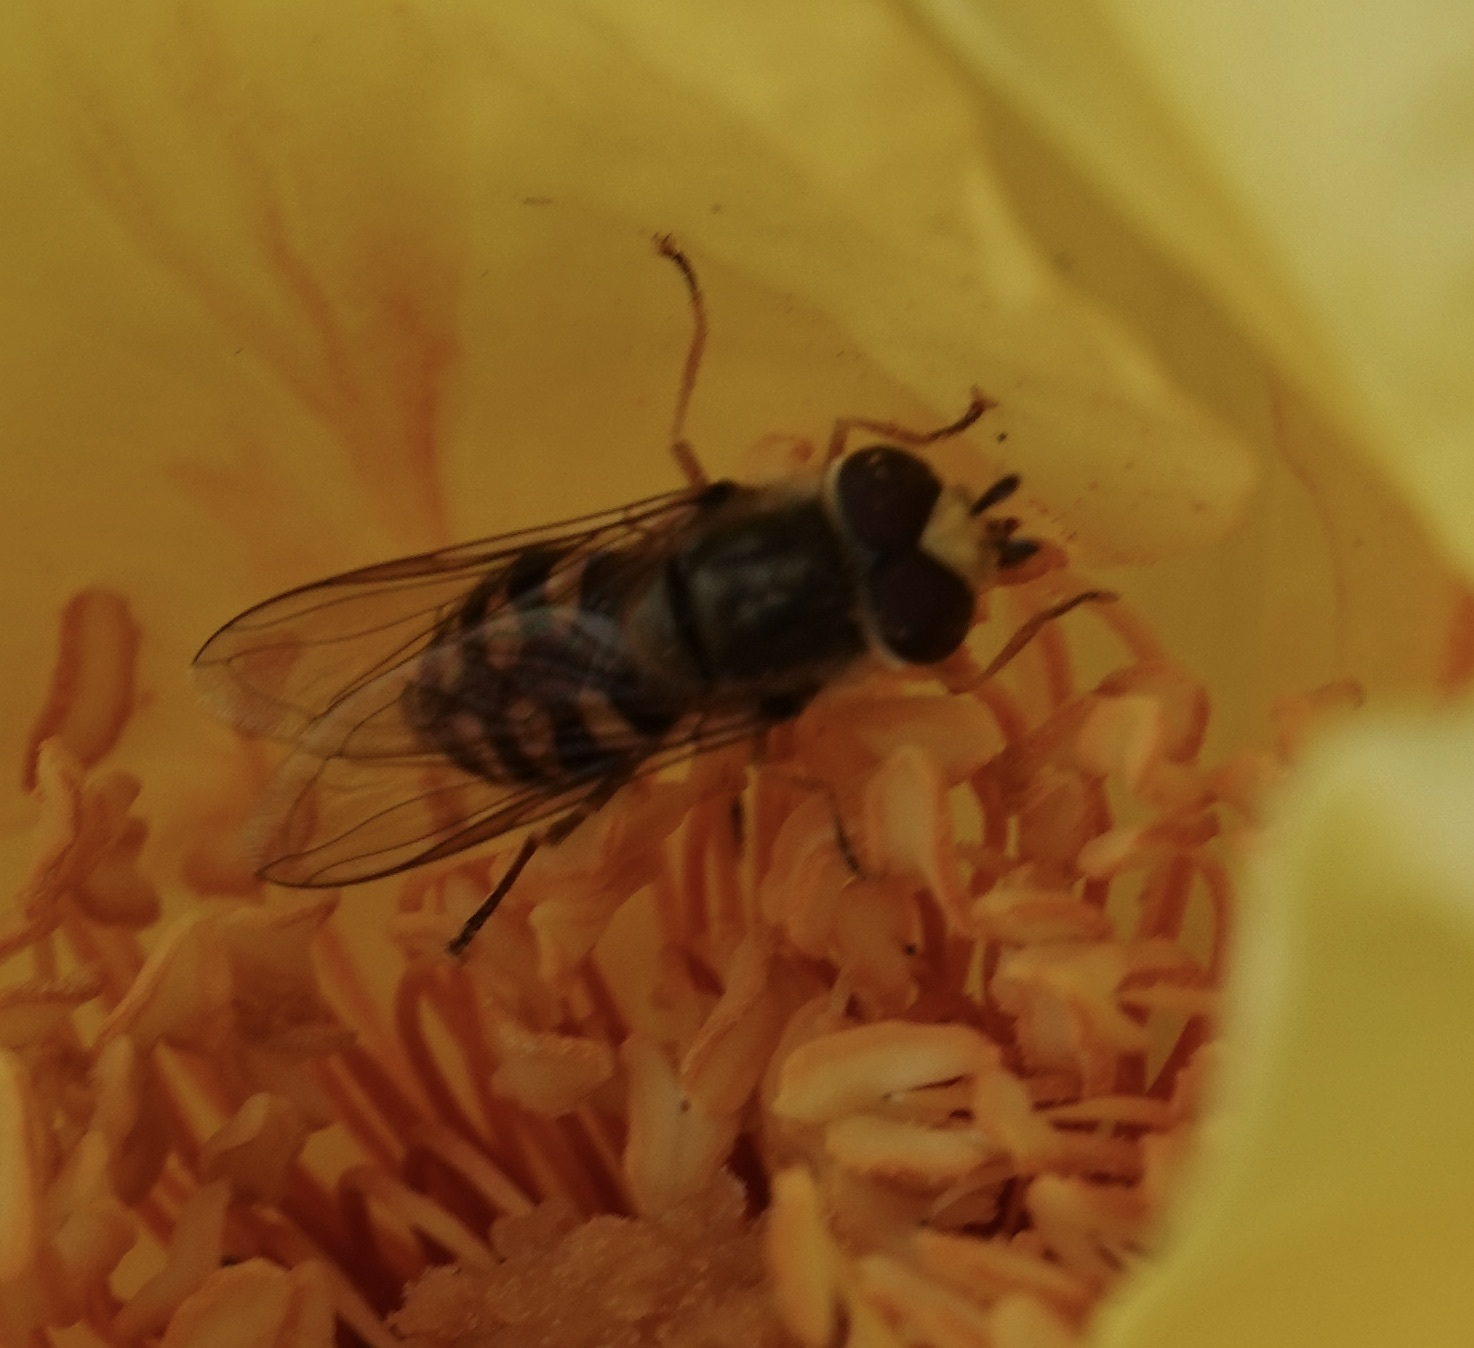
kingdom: Animalia
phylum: Arthropoda
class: Insecta
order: Diptera
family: Syrphidae
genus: Eupeodes
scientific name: Eupeodes
